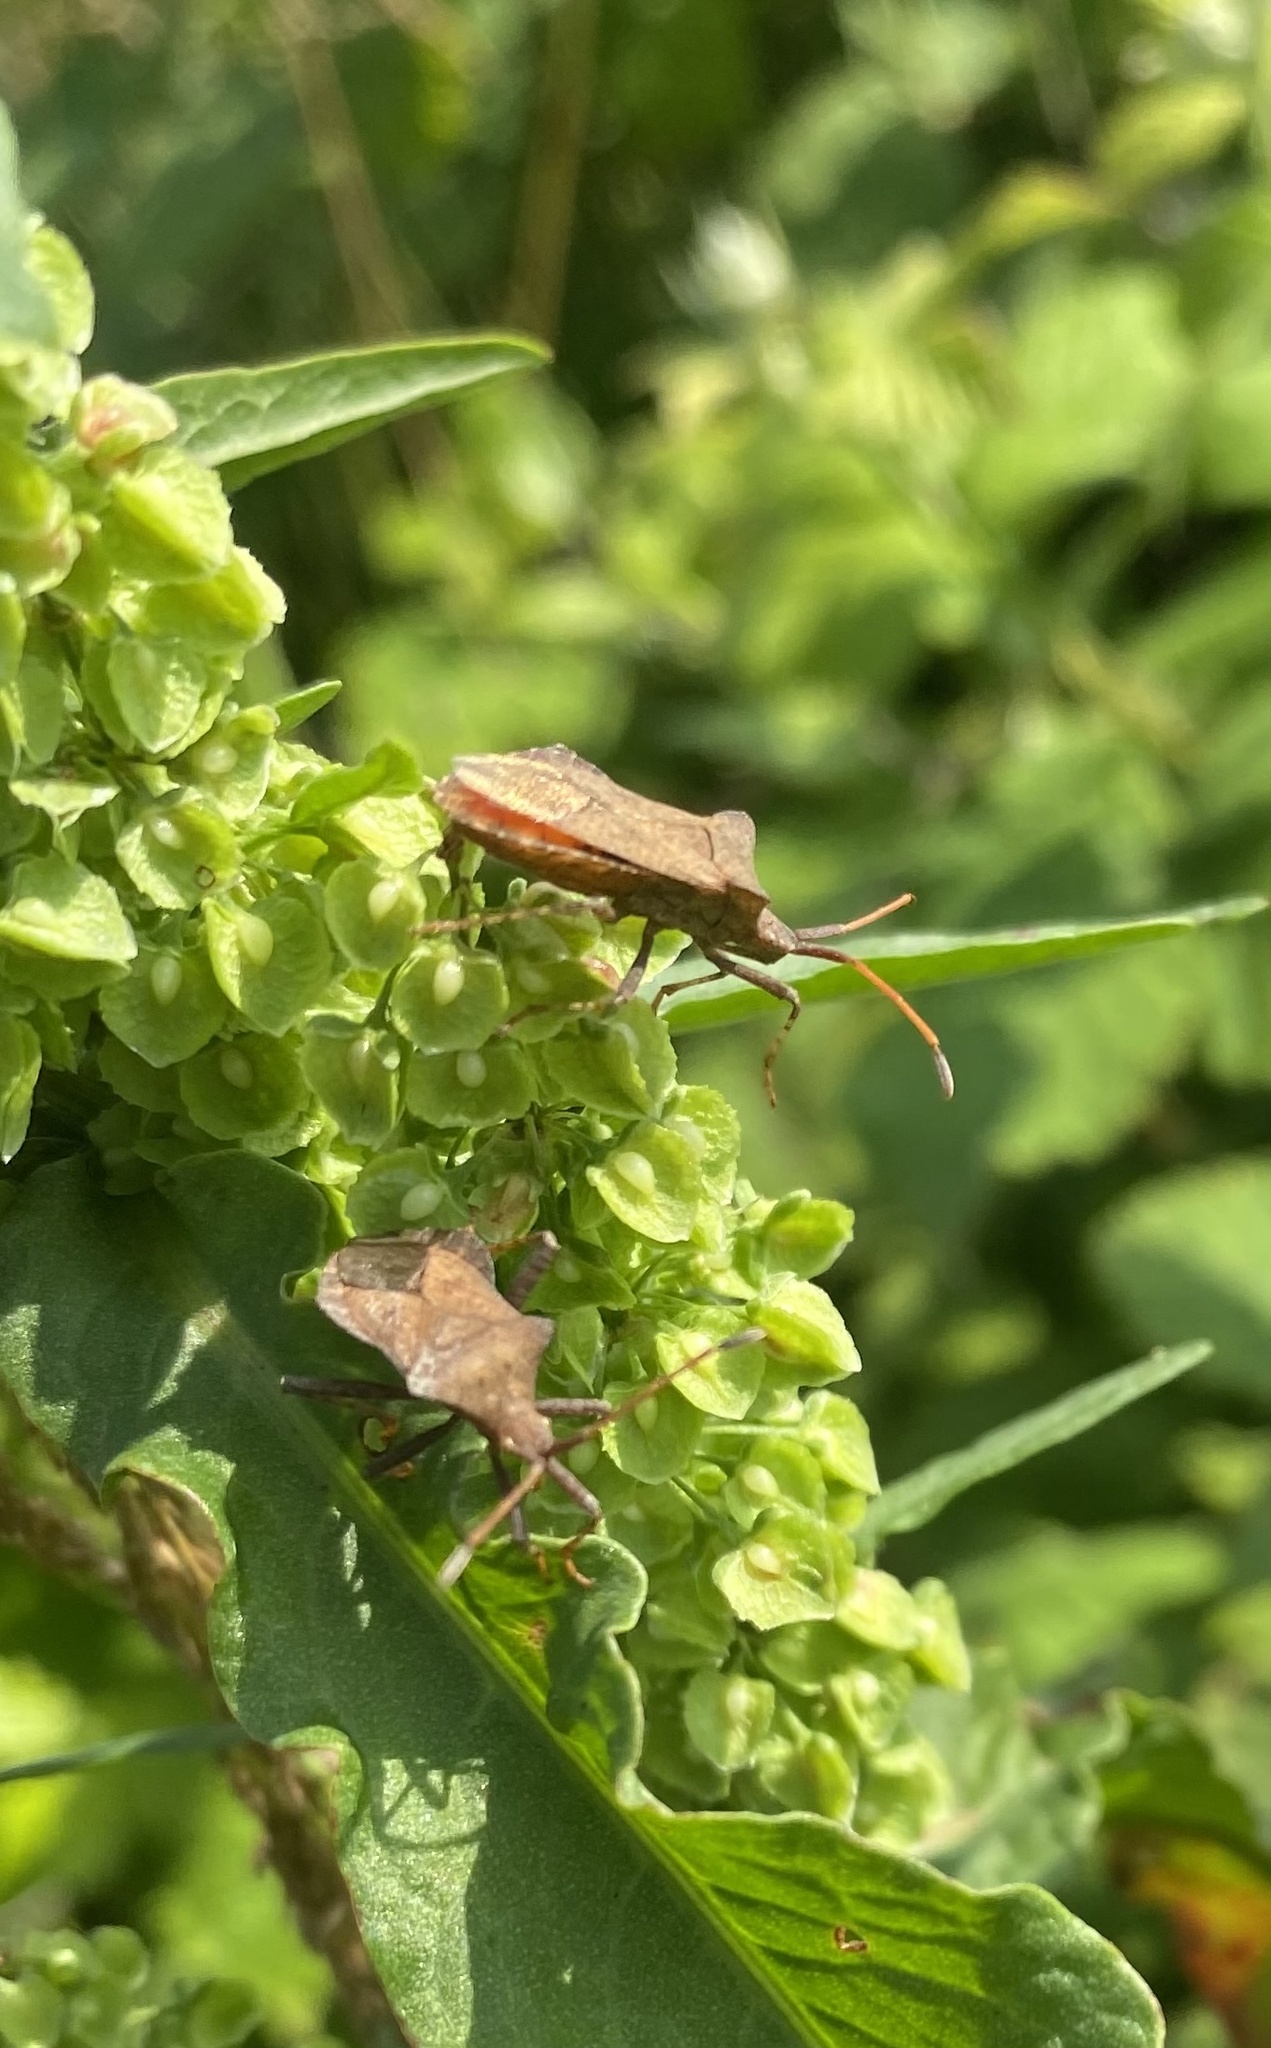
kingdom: Animalia
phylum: Arthropoda
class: Insecta
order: Hemiptera
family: Coreidae
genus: Coreus
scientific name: Coreus marginatus
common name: Dock bug
